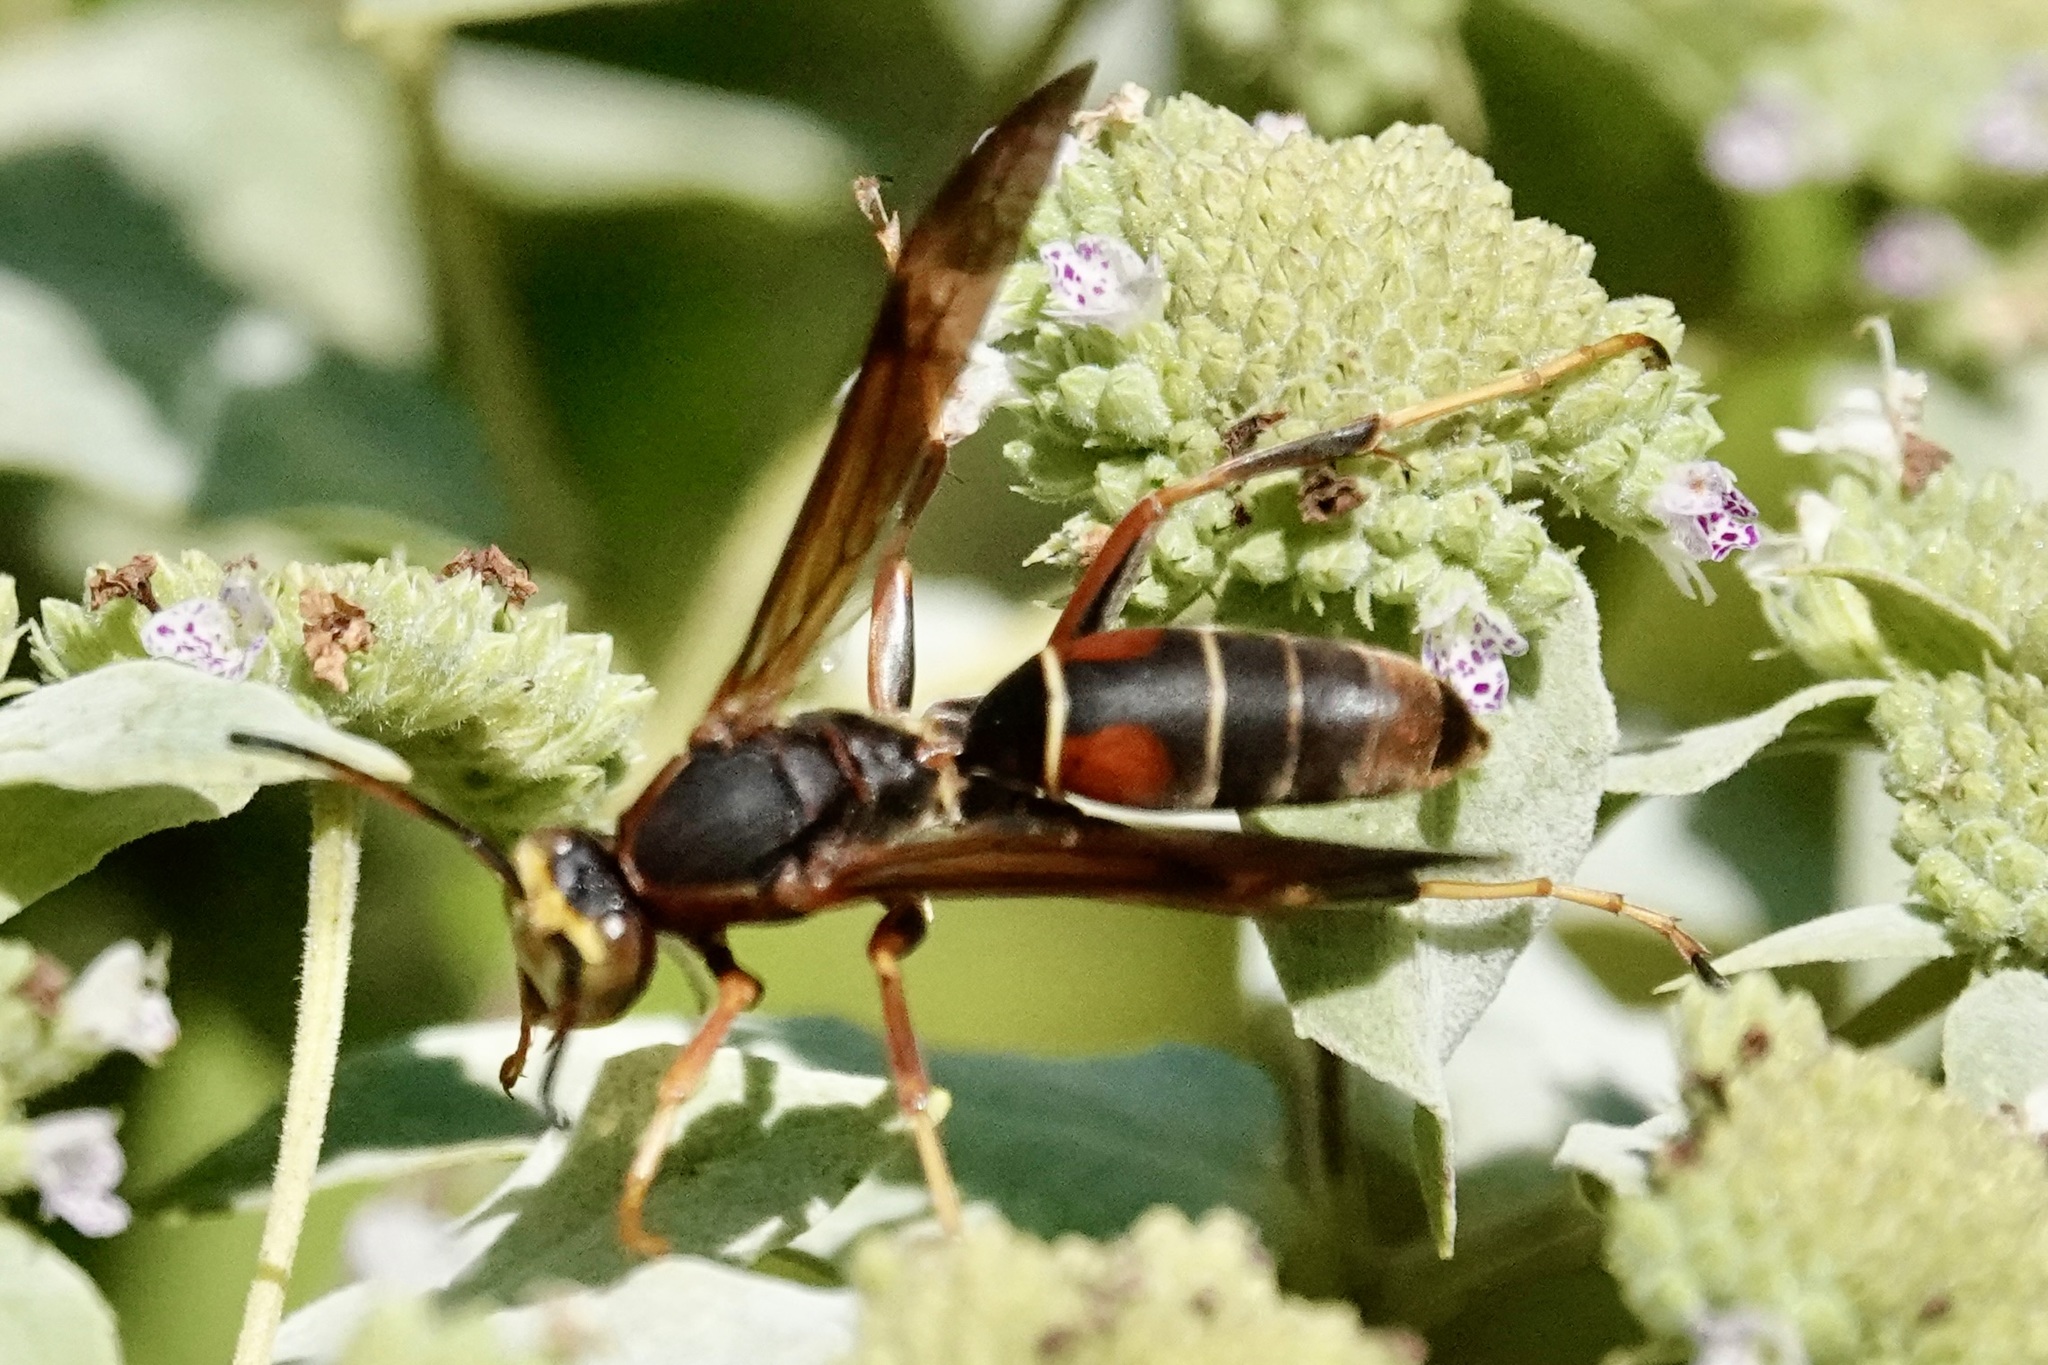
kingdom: Animalia
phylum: Arthropoda
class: Insecta
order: Hymenoptera
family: Eumenidae
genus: Polistes
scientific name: Polistes fuscatus
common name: Dark paper wasp
